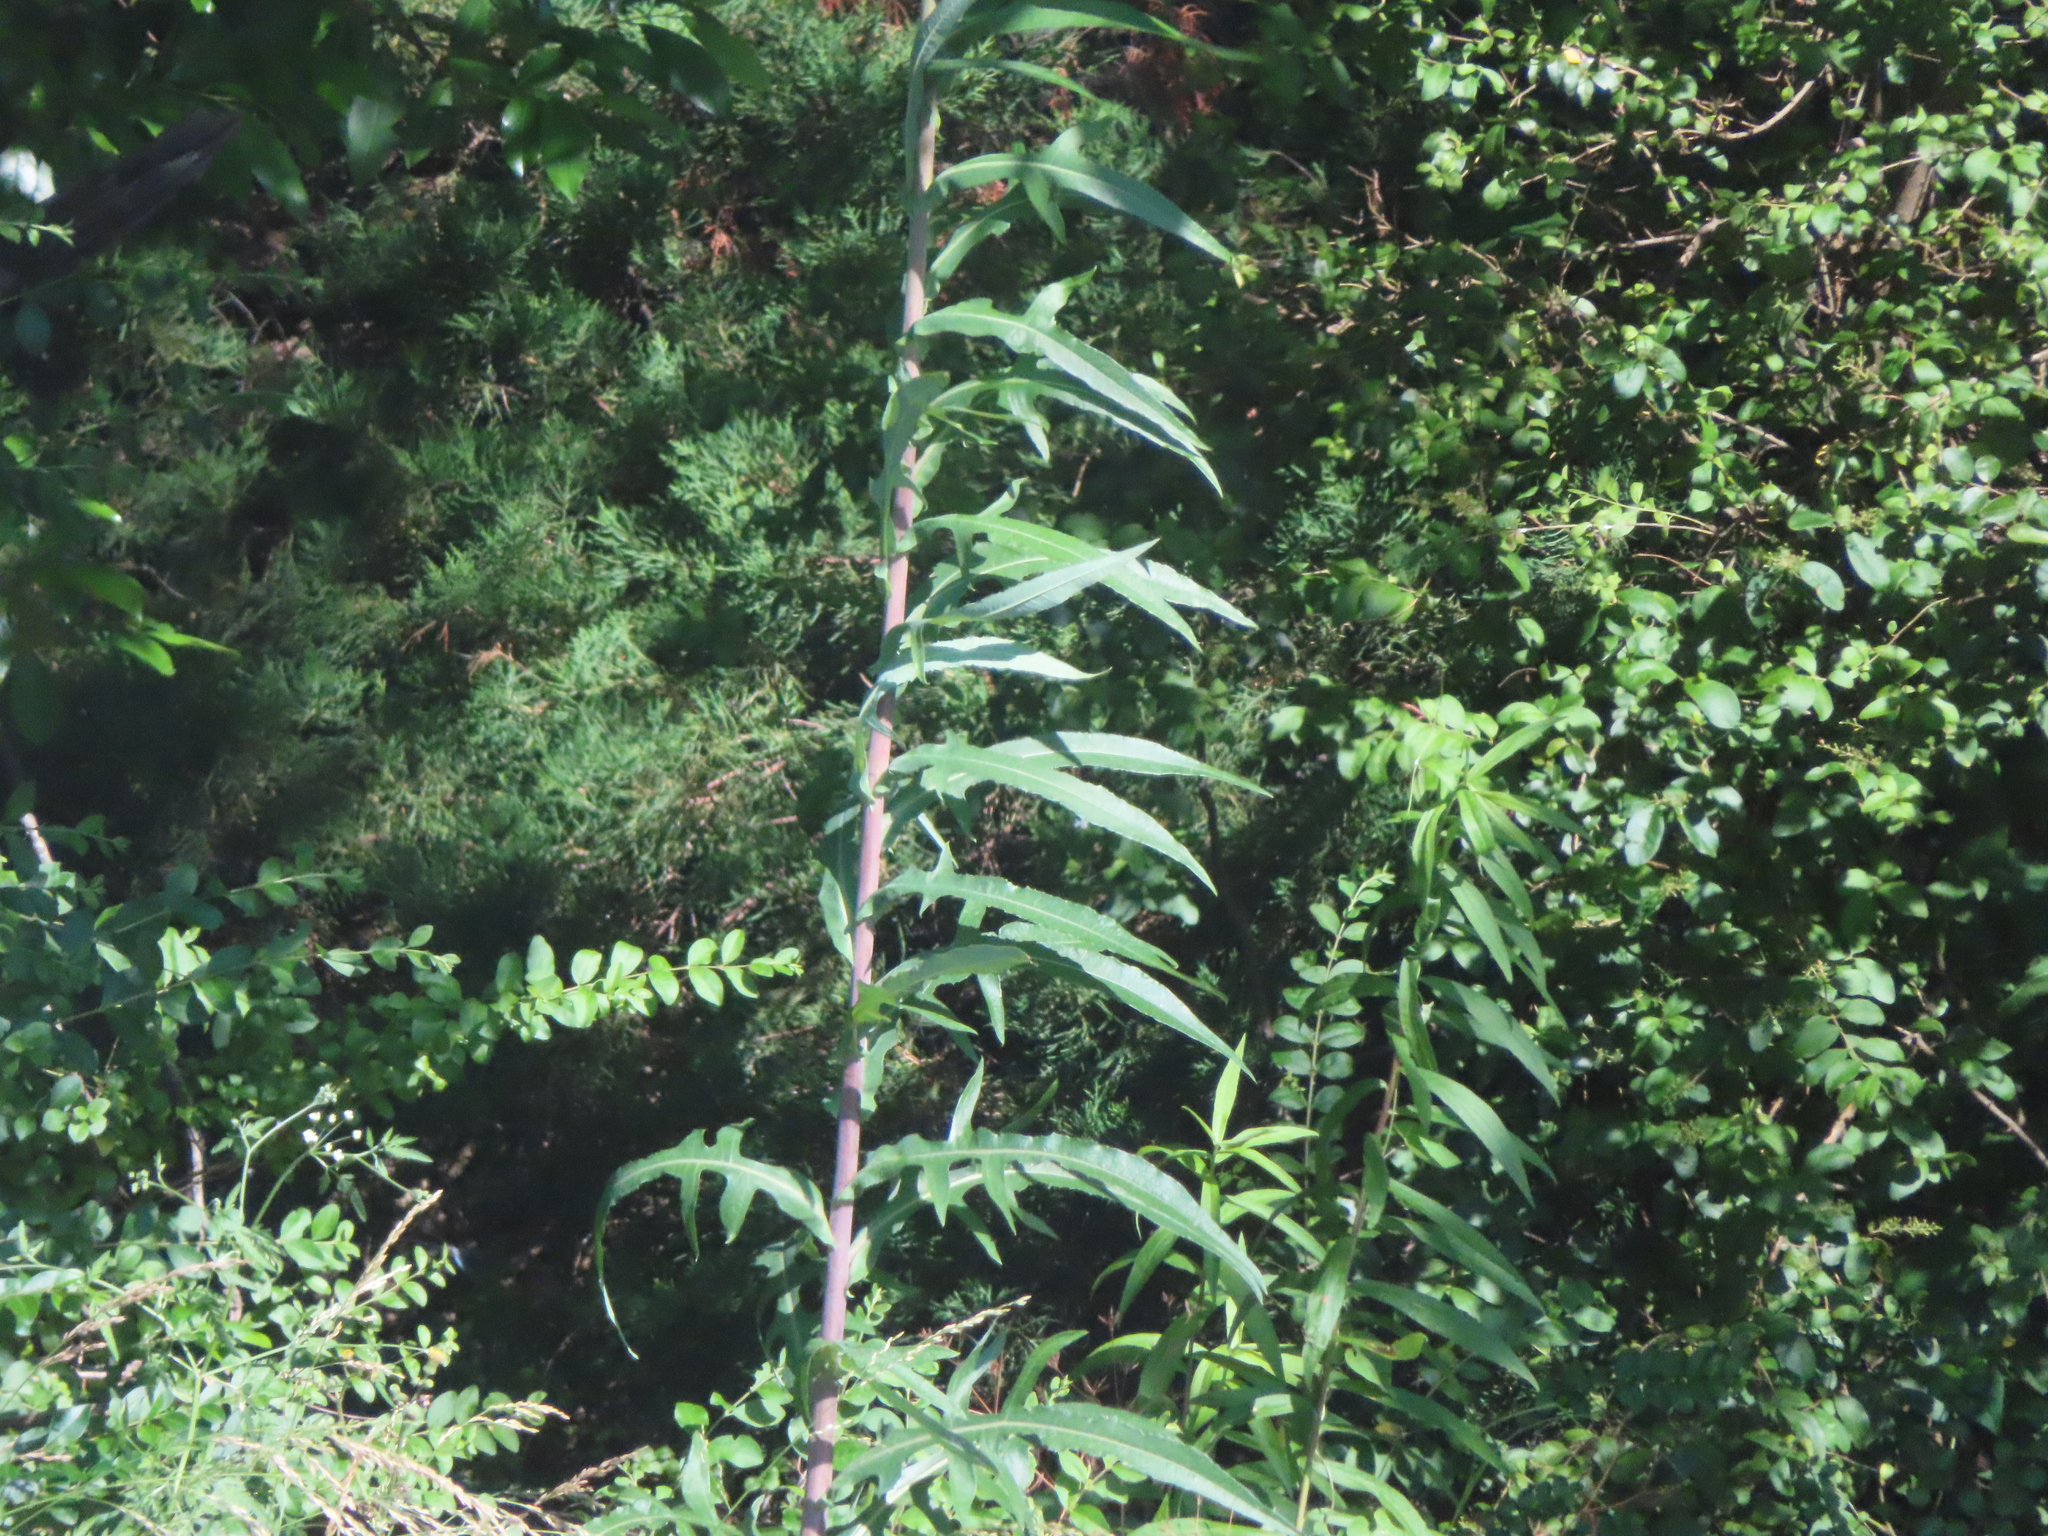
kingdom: Plantae
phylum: Tracheophyta
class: Magnoliopsida
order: Asterales
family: Asteraceae
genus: Lactuca
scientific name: Lactuca canadensis
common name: Canada lettuce
